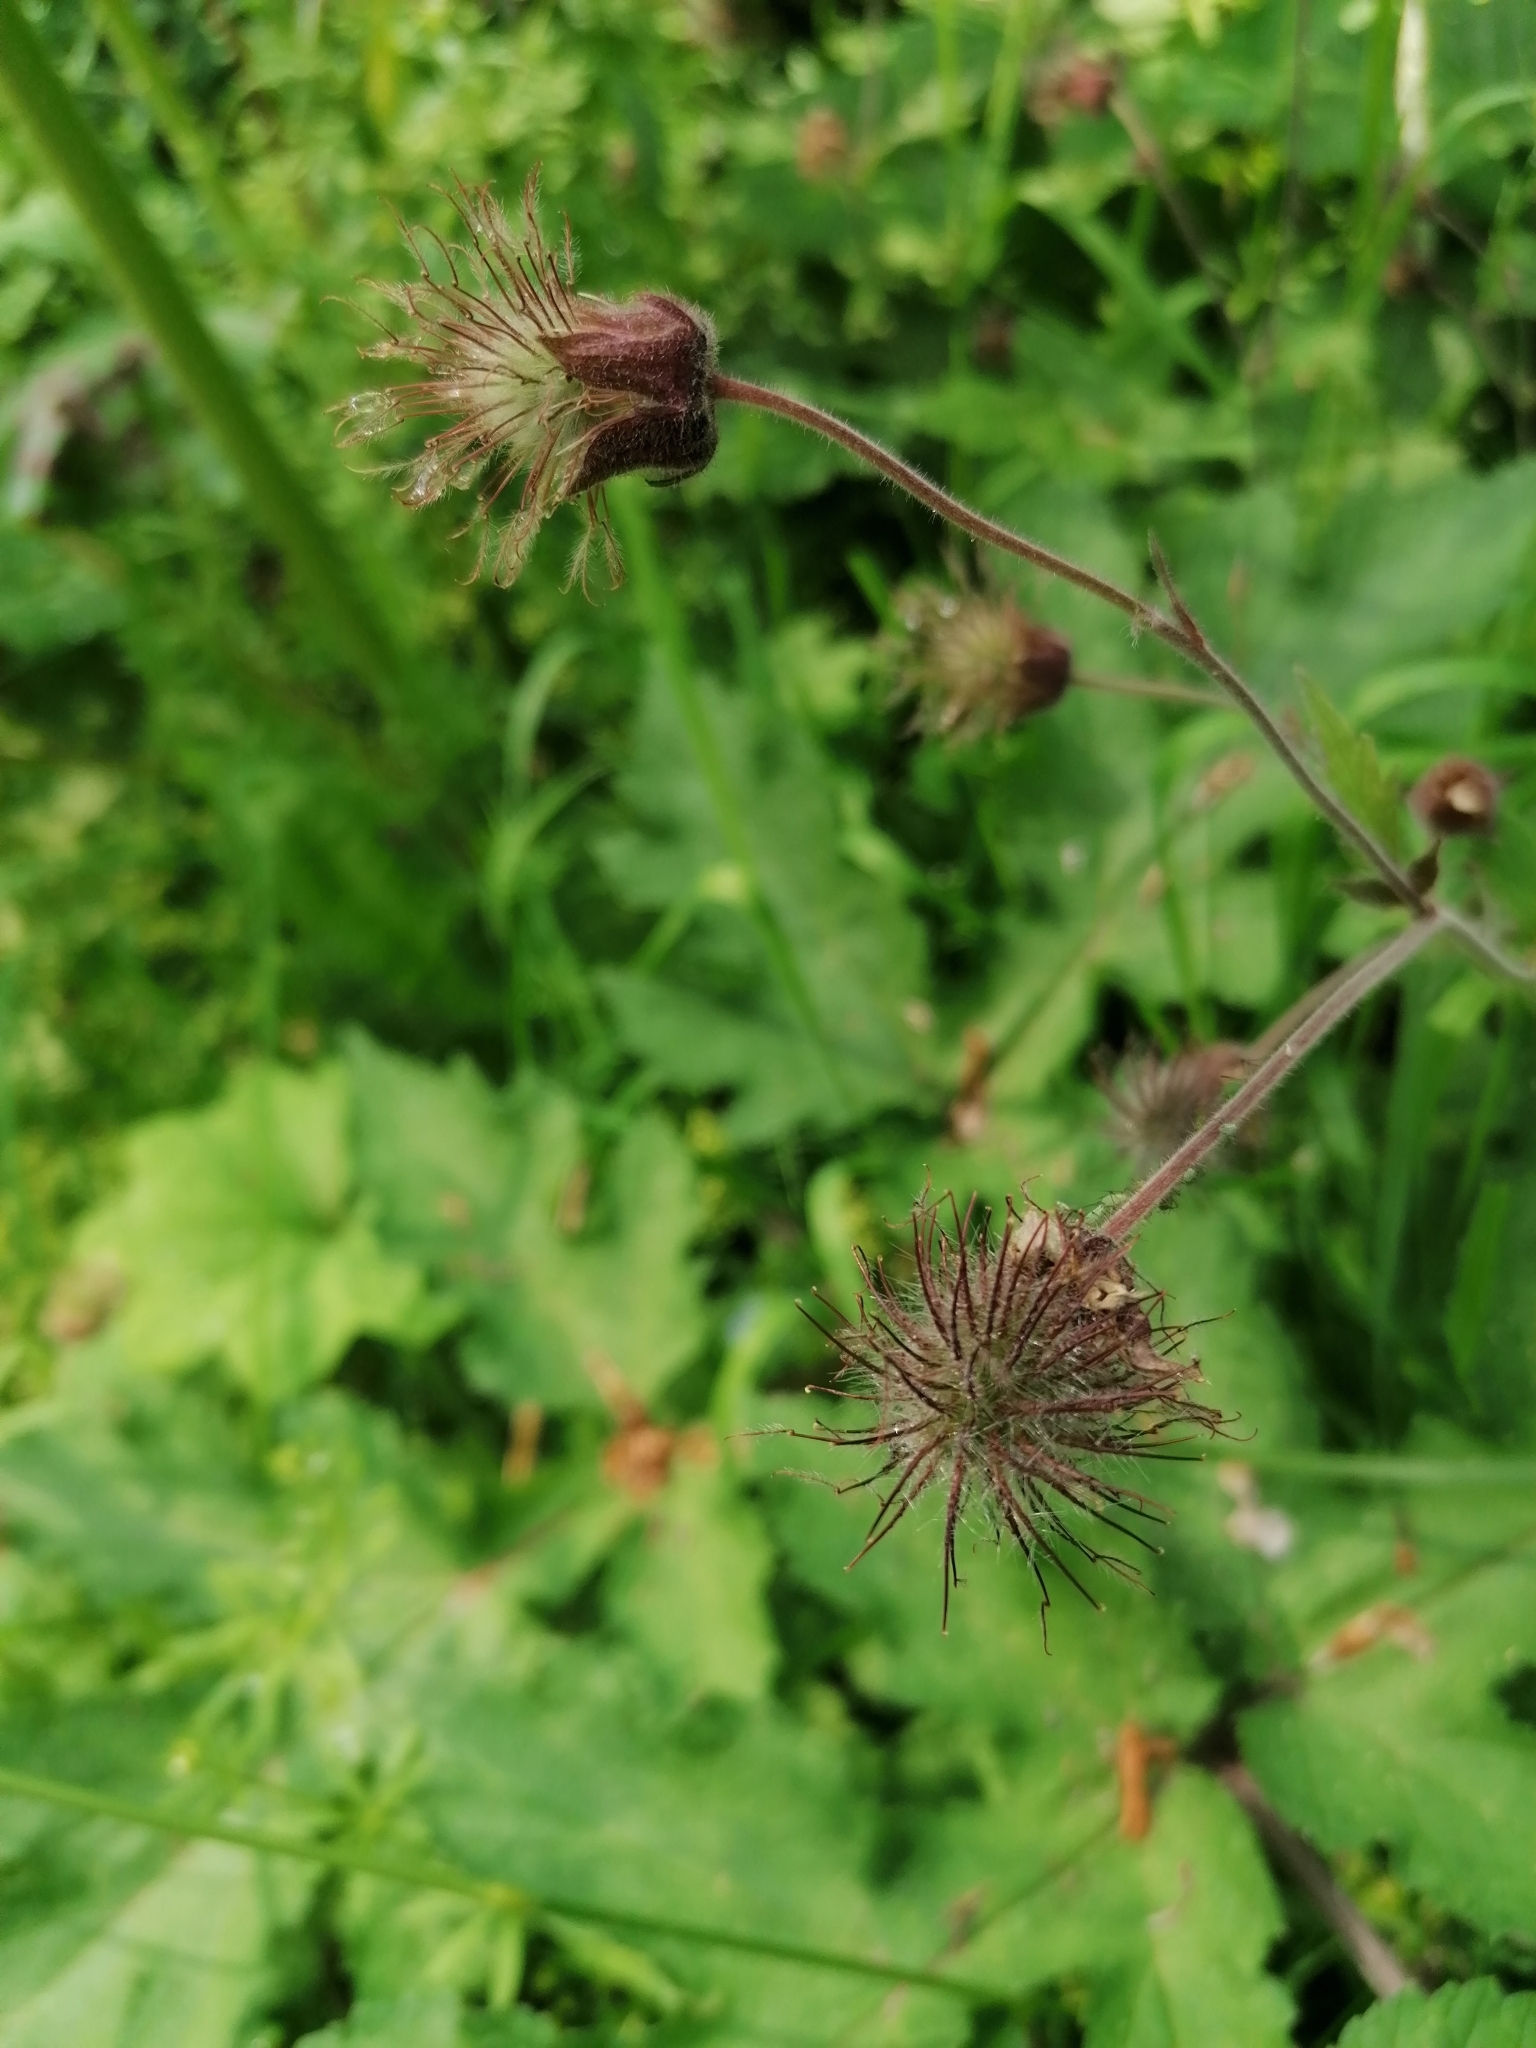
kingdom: Plantae
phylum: Tracheophyta
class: Magnoliopsida
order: Rosales
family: Rosaceae
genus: Geum
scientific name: Geum rivale
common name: Water avens
